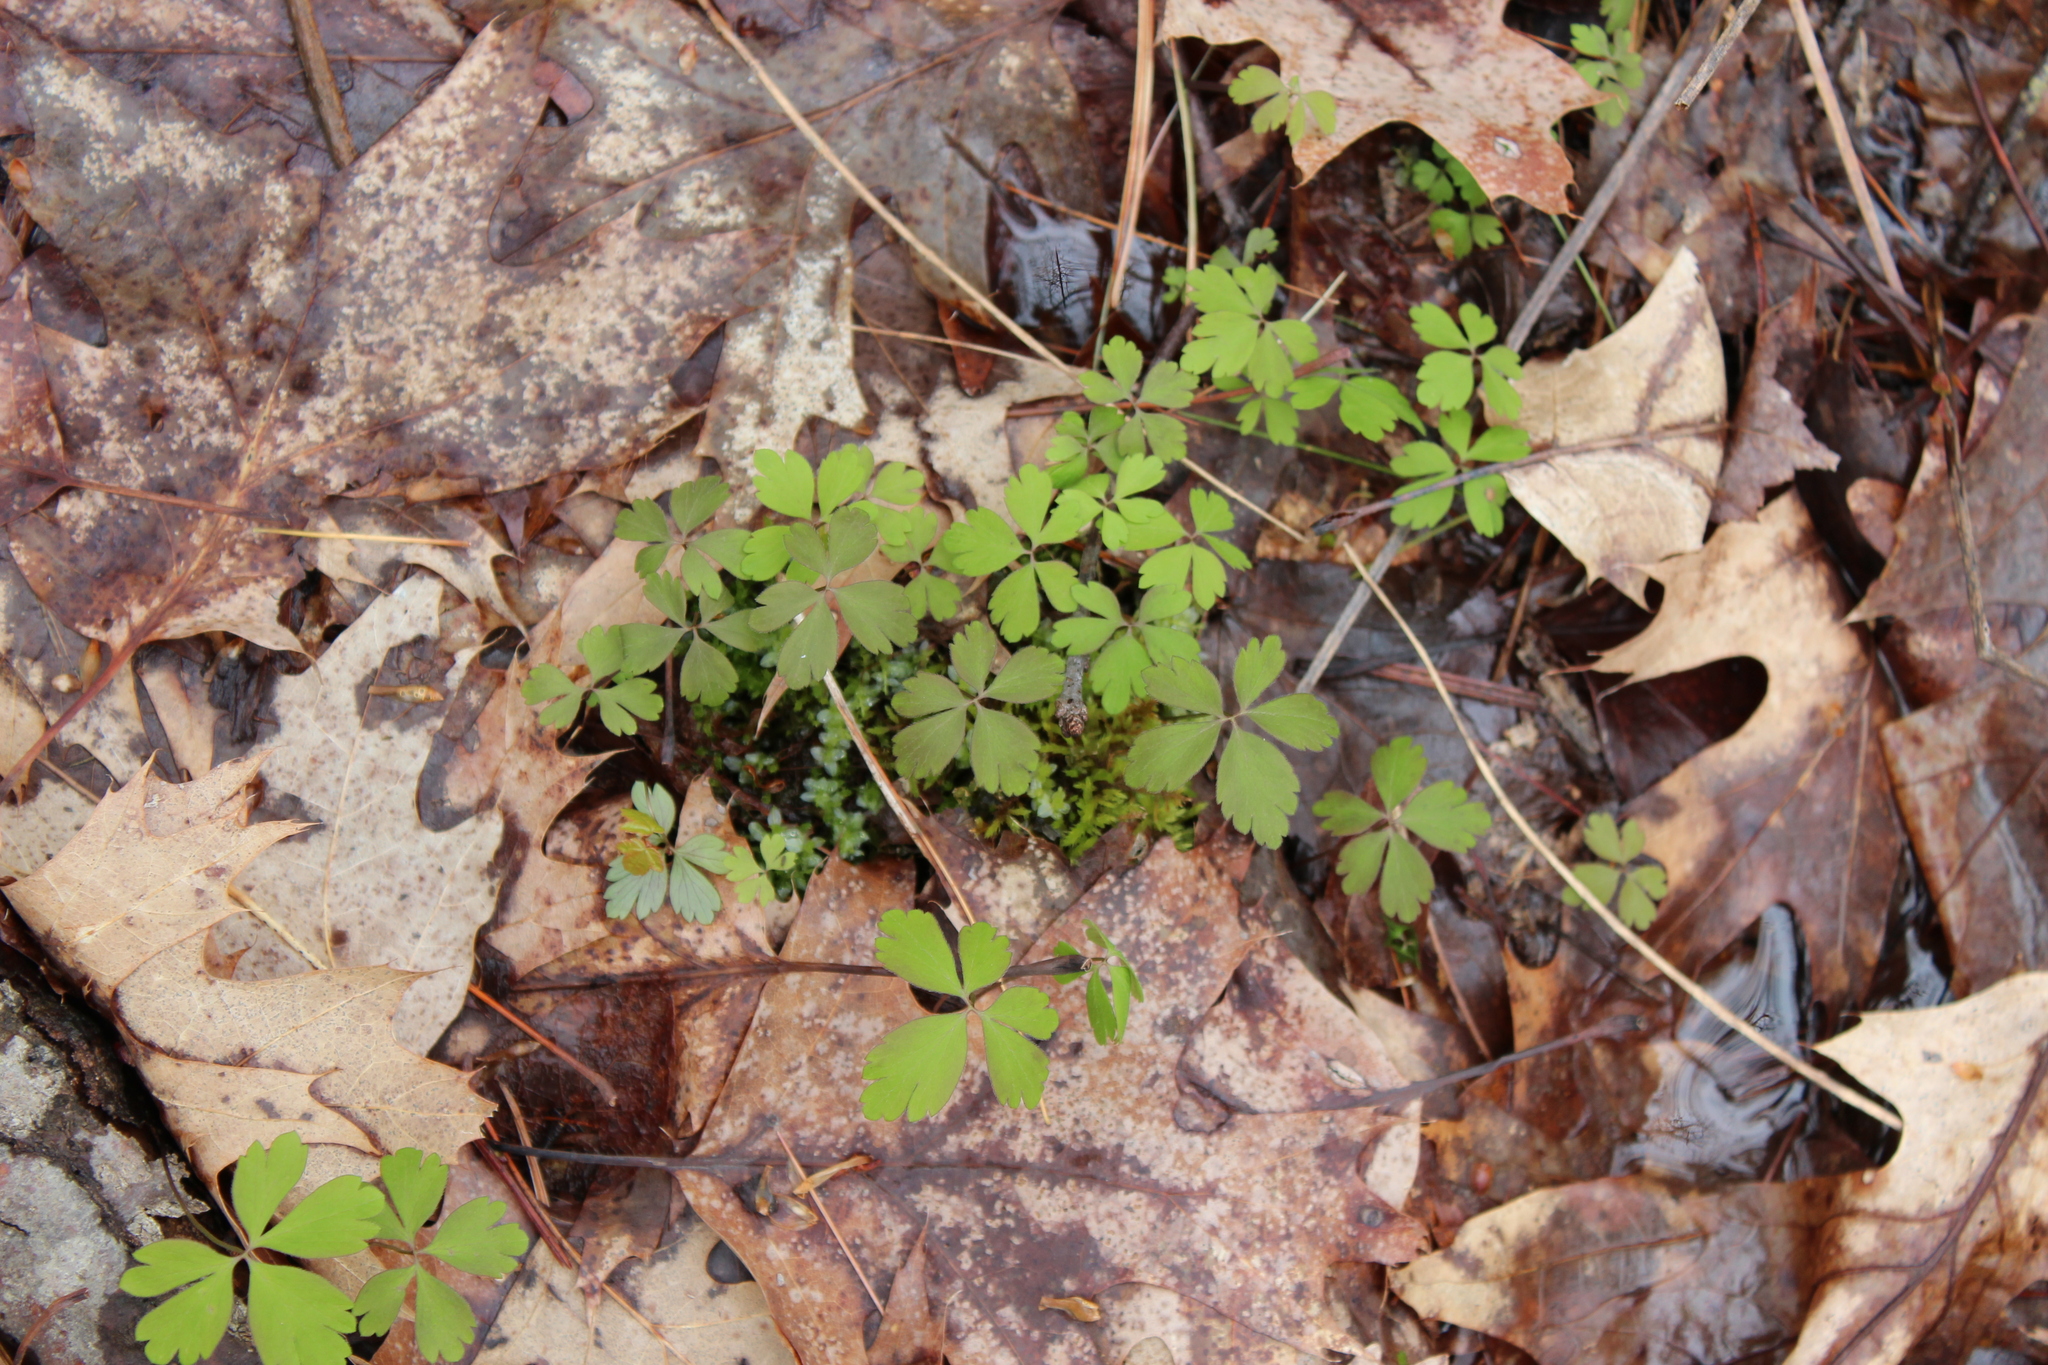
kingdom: Plantae
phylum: Tracheophyta
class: Magnoliopsida
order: Ranunculales
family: Ranunculaceae
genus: Anemone
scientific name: Anemone quinquefolia
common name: Wood anemone
